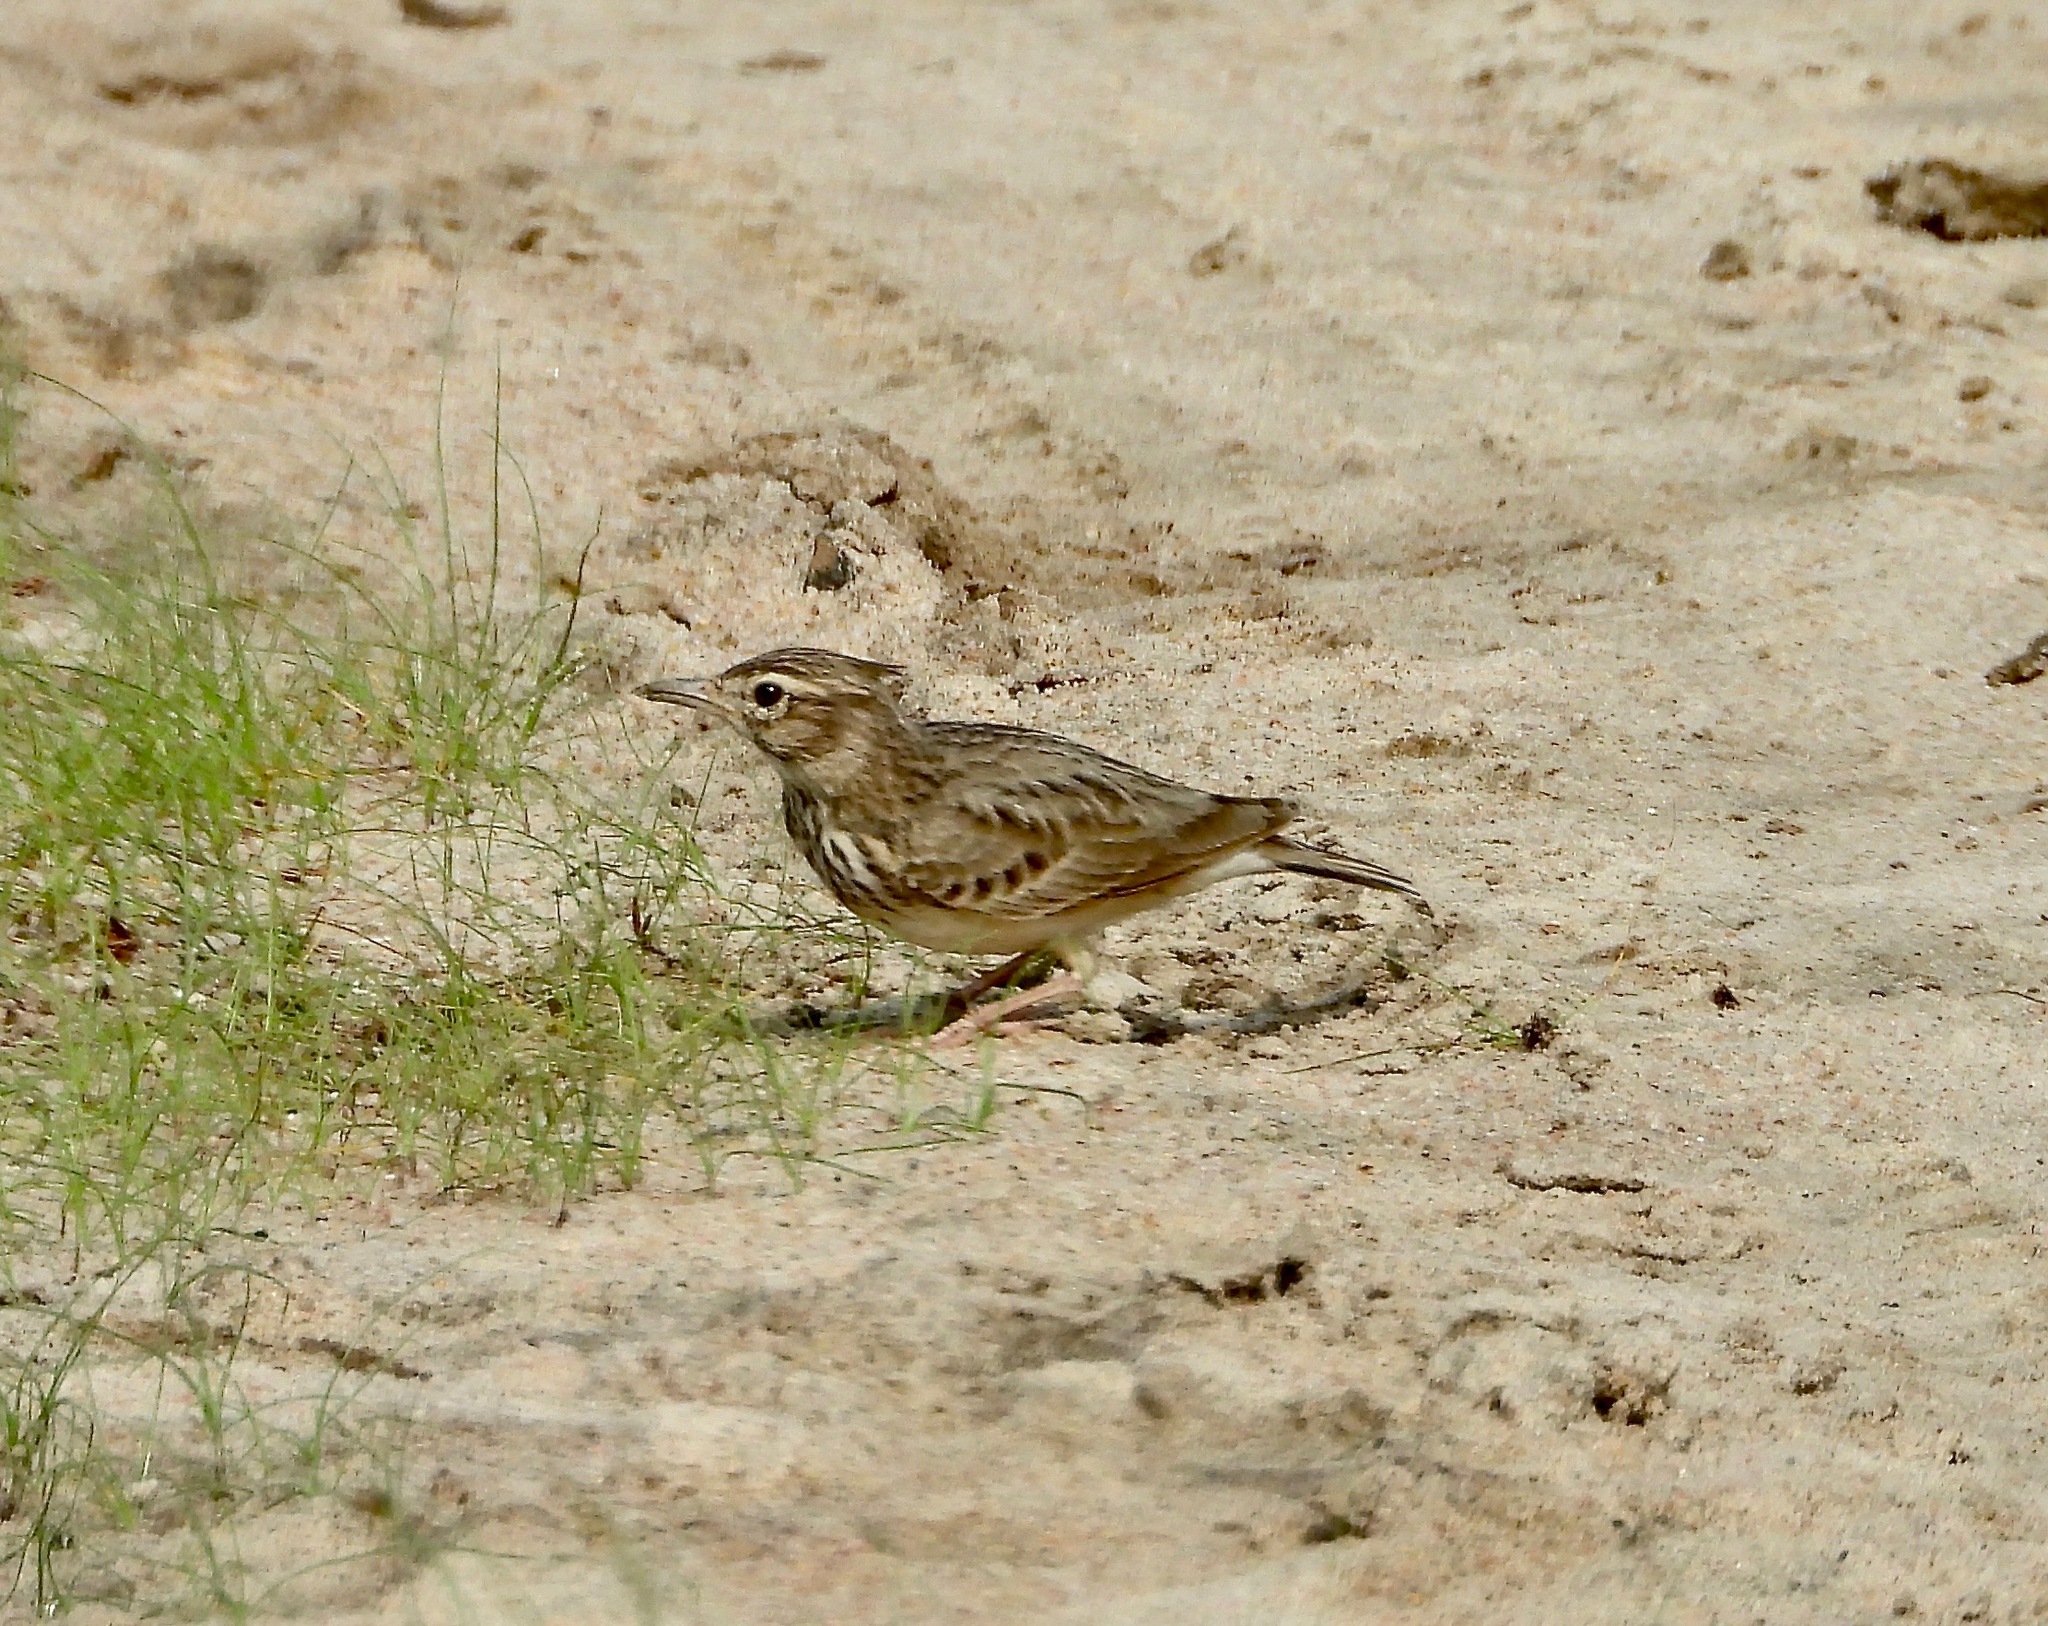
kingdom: Animalia
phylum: Chordata
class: Aves
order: Passeriformes
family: Alaudidae
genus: Galerida
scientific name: Galerida cristata
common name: Crested lark
